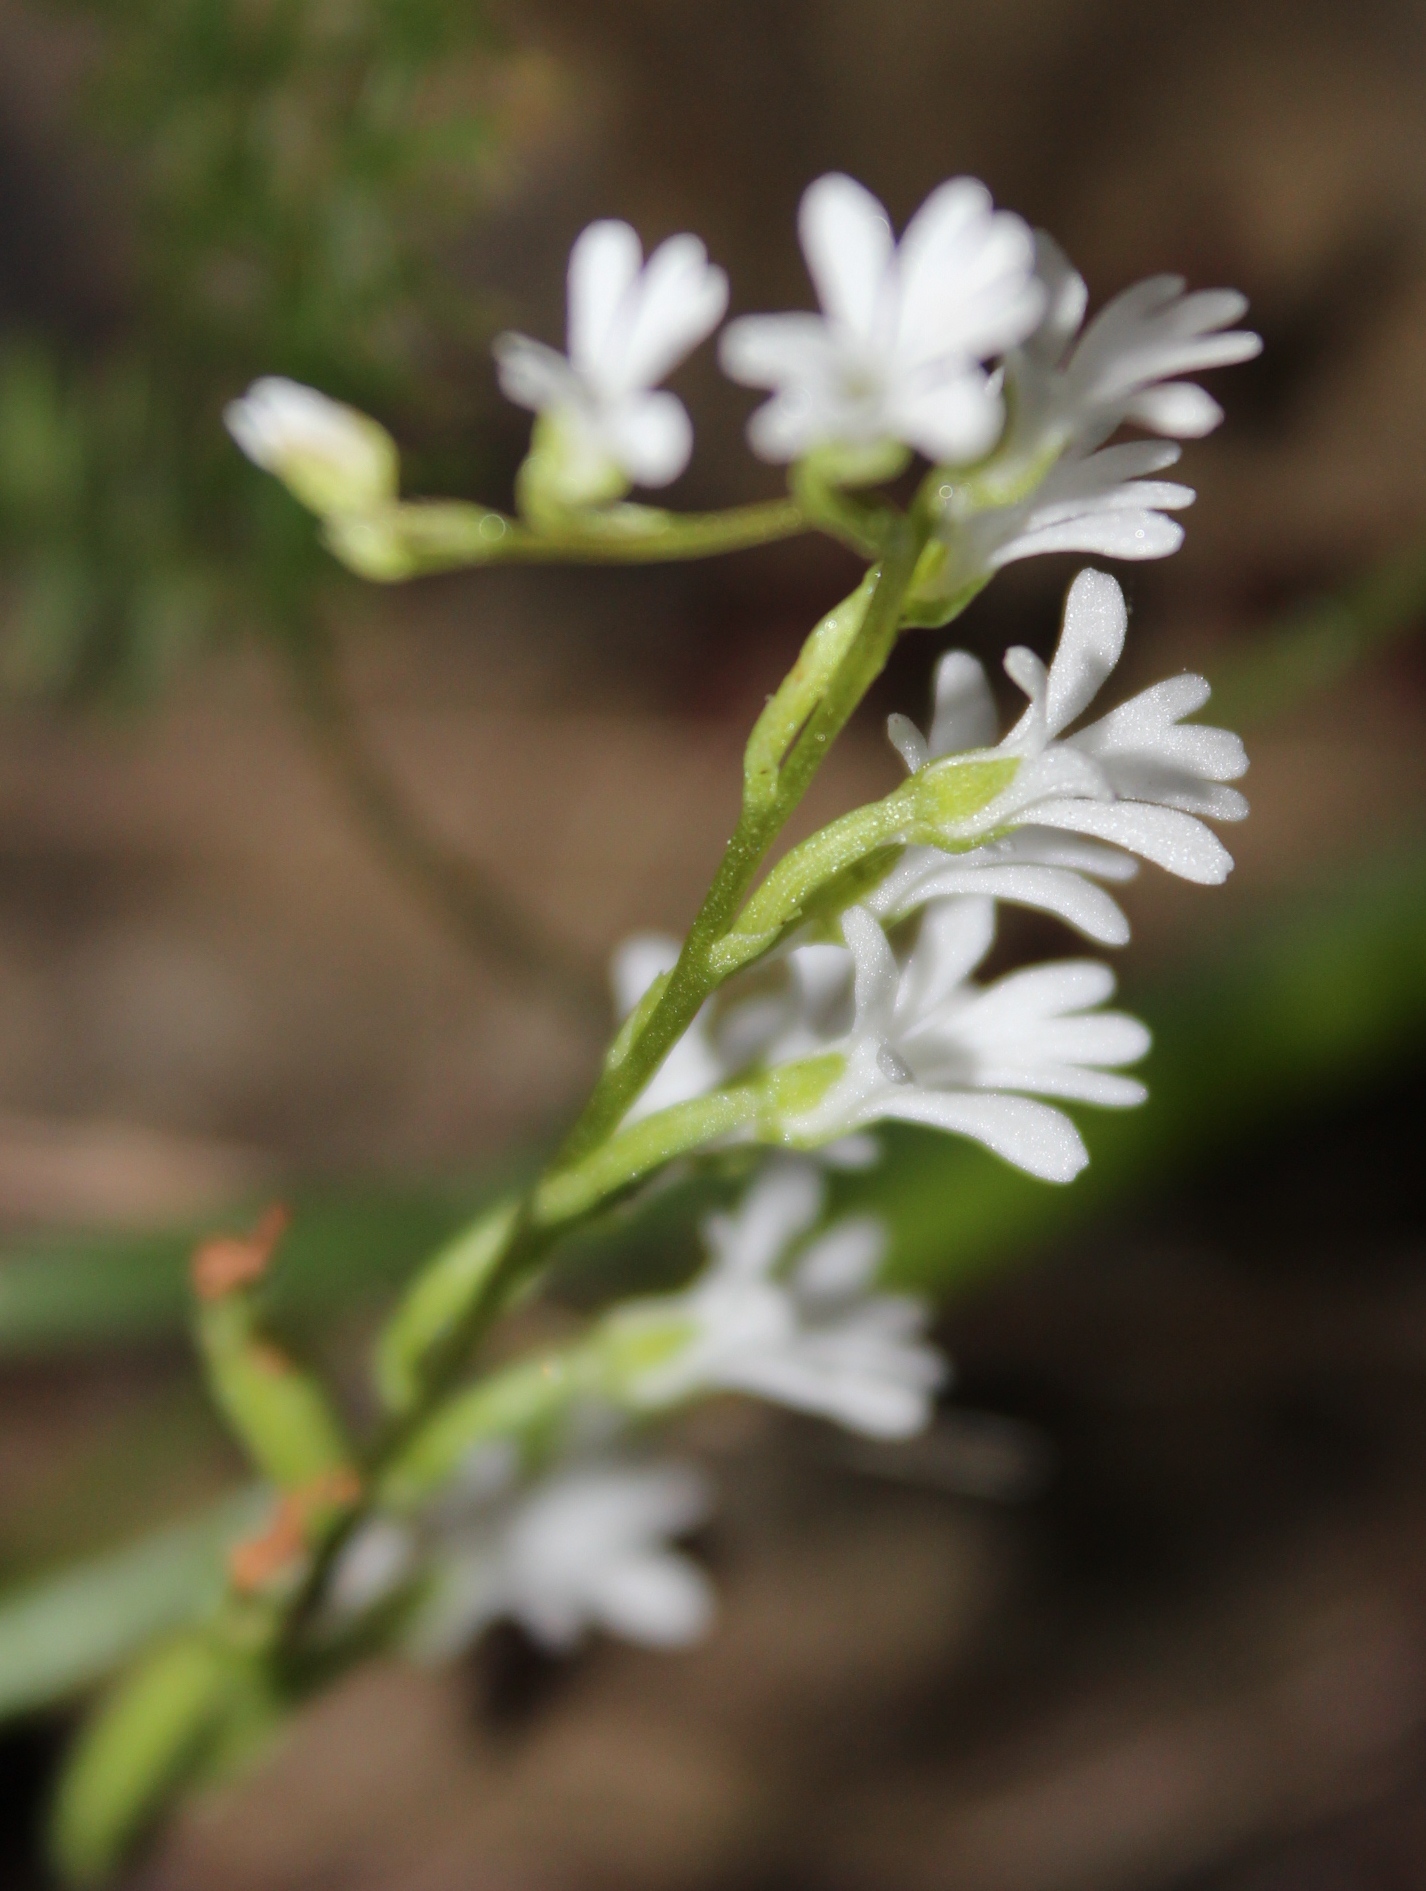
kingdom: Plantae
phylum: Tracheophyta
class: Liliopsida
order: Asparagales
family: Orchidaceae
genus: Holothrix
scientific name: Holothrix parviflora
